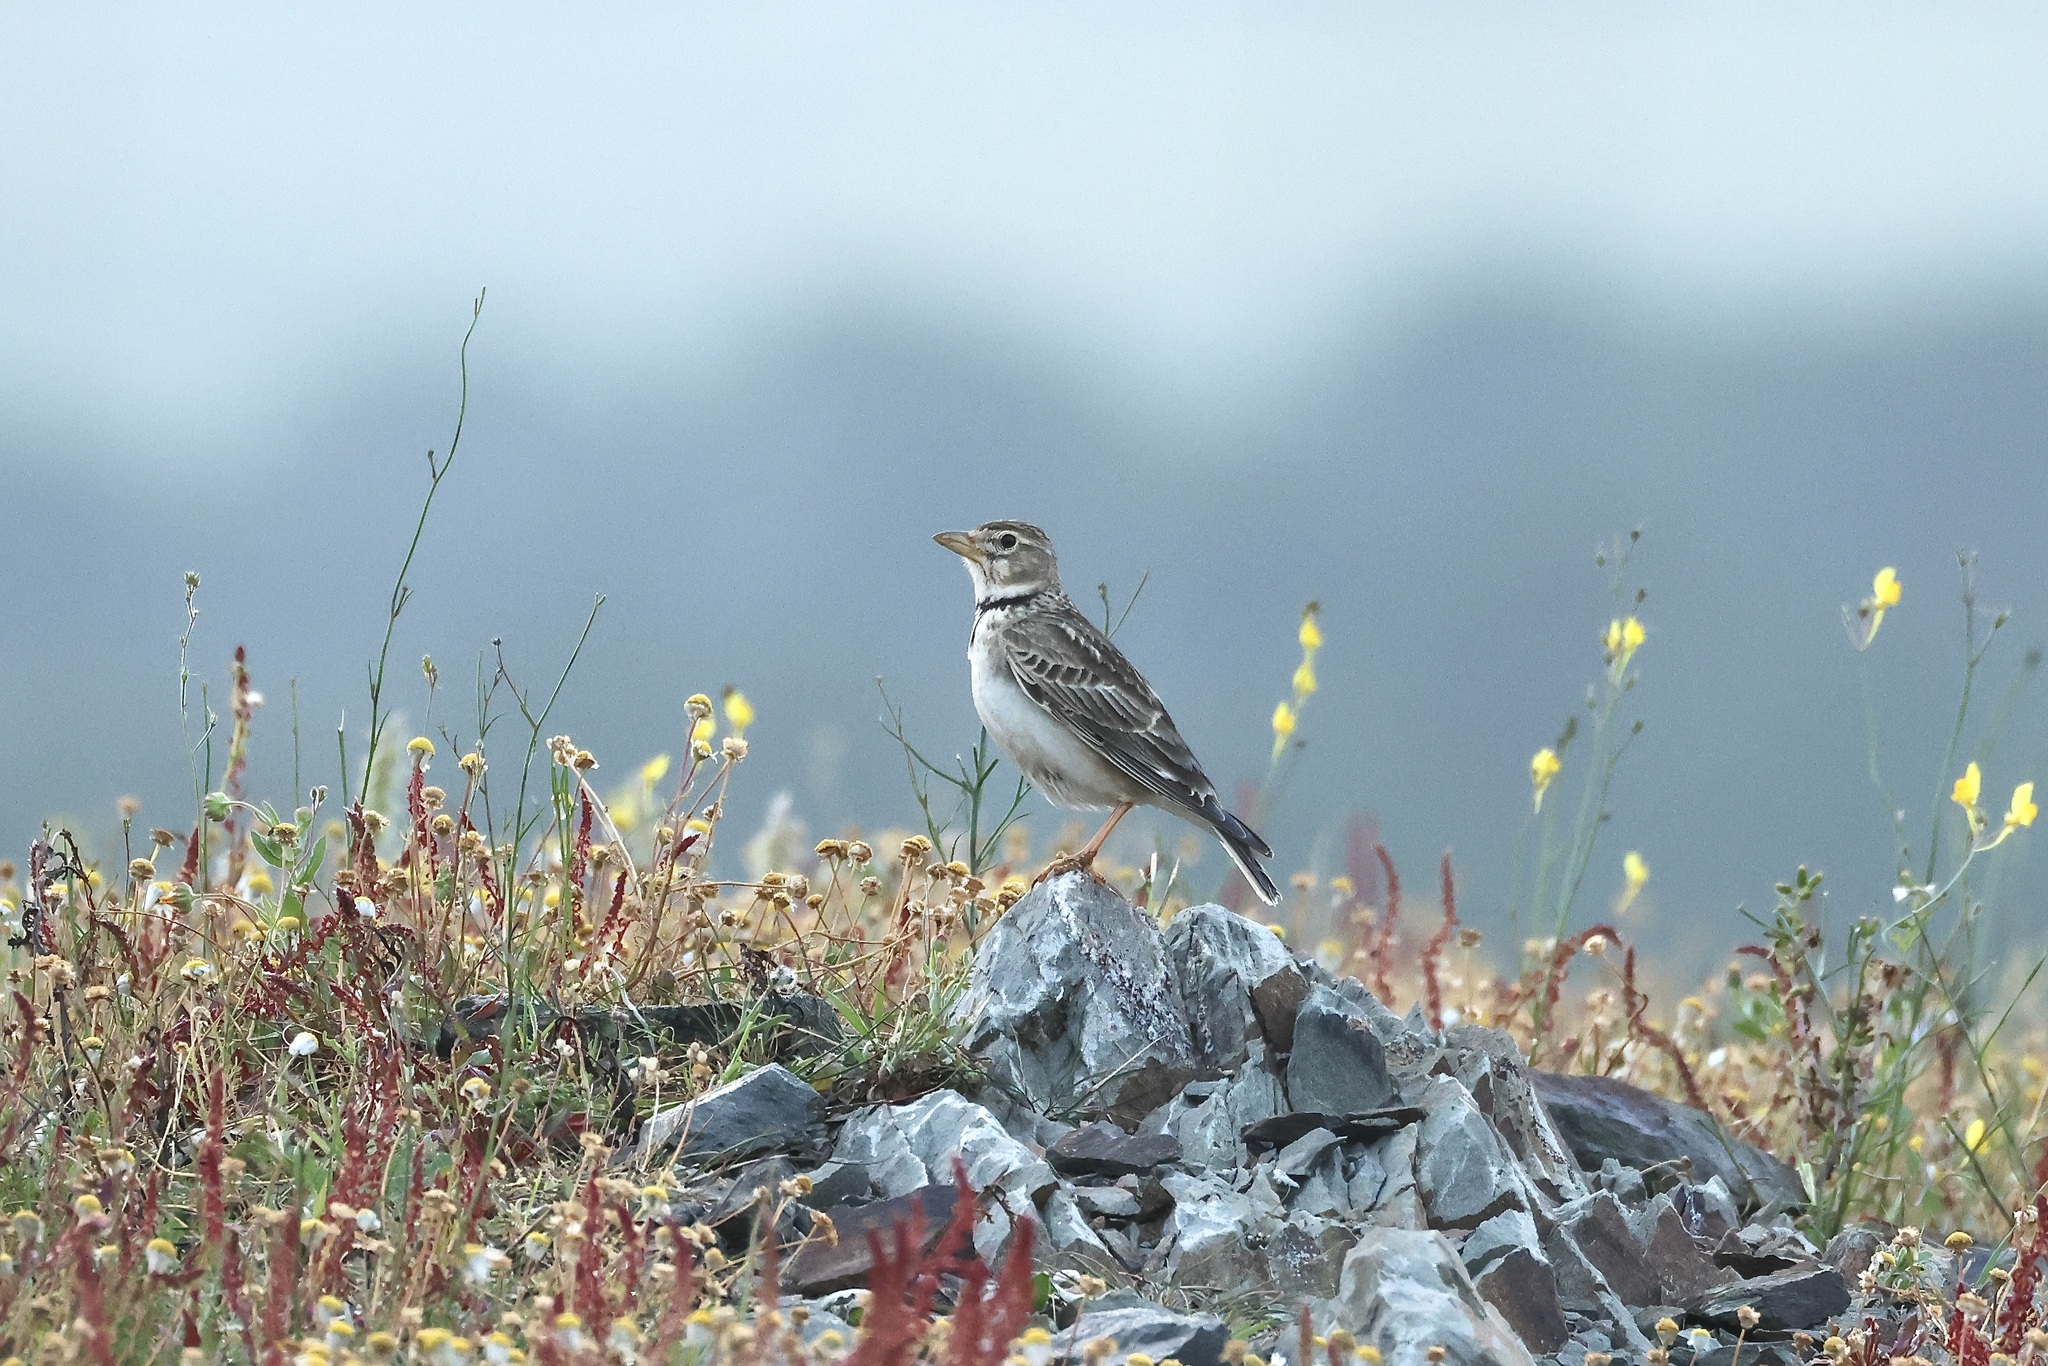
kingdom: Animalia
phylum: Chordata
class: Aves
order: Passeriformes
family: Alaudidae
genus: Melanocorypha
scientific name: Melanocorypha calandra
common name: Calandra lark
